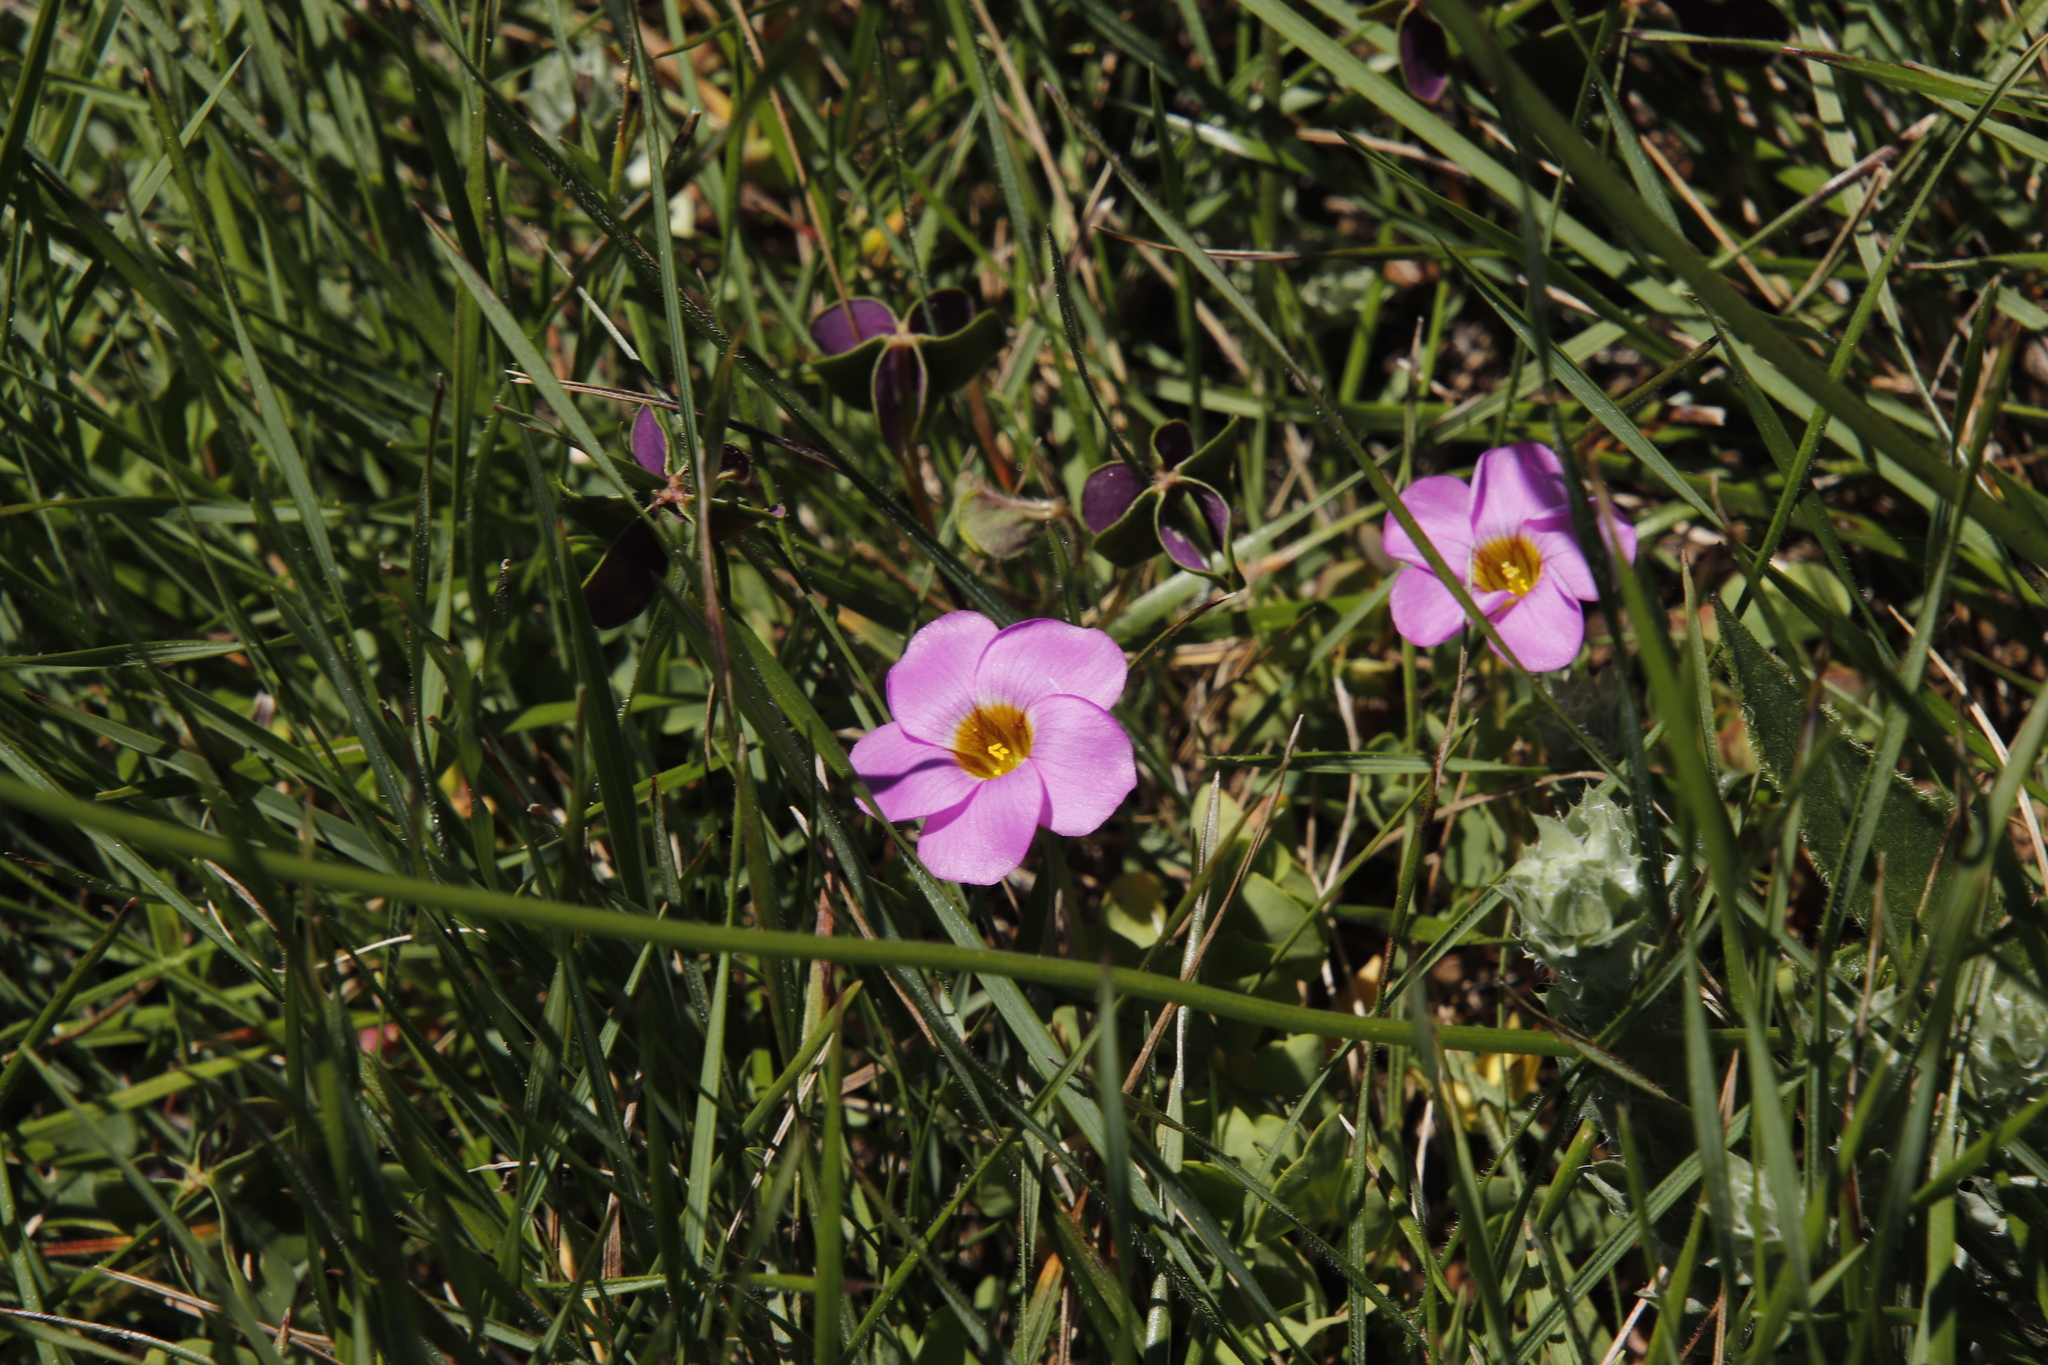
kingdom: Plantae
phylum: Tracheophyta
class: Magnoliopsida
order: Oxalidales
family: Oxalidaceae
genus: Oxalis
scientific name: Oxalis obliquifolia
